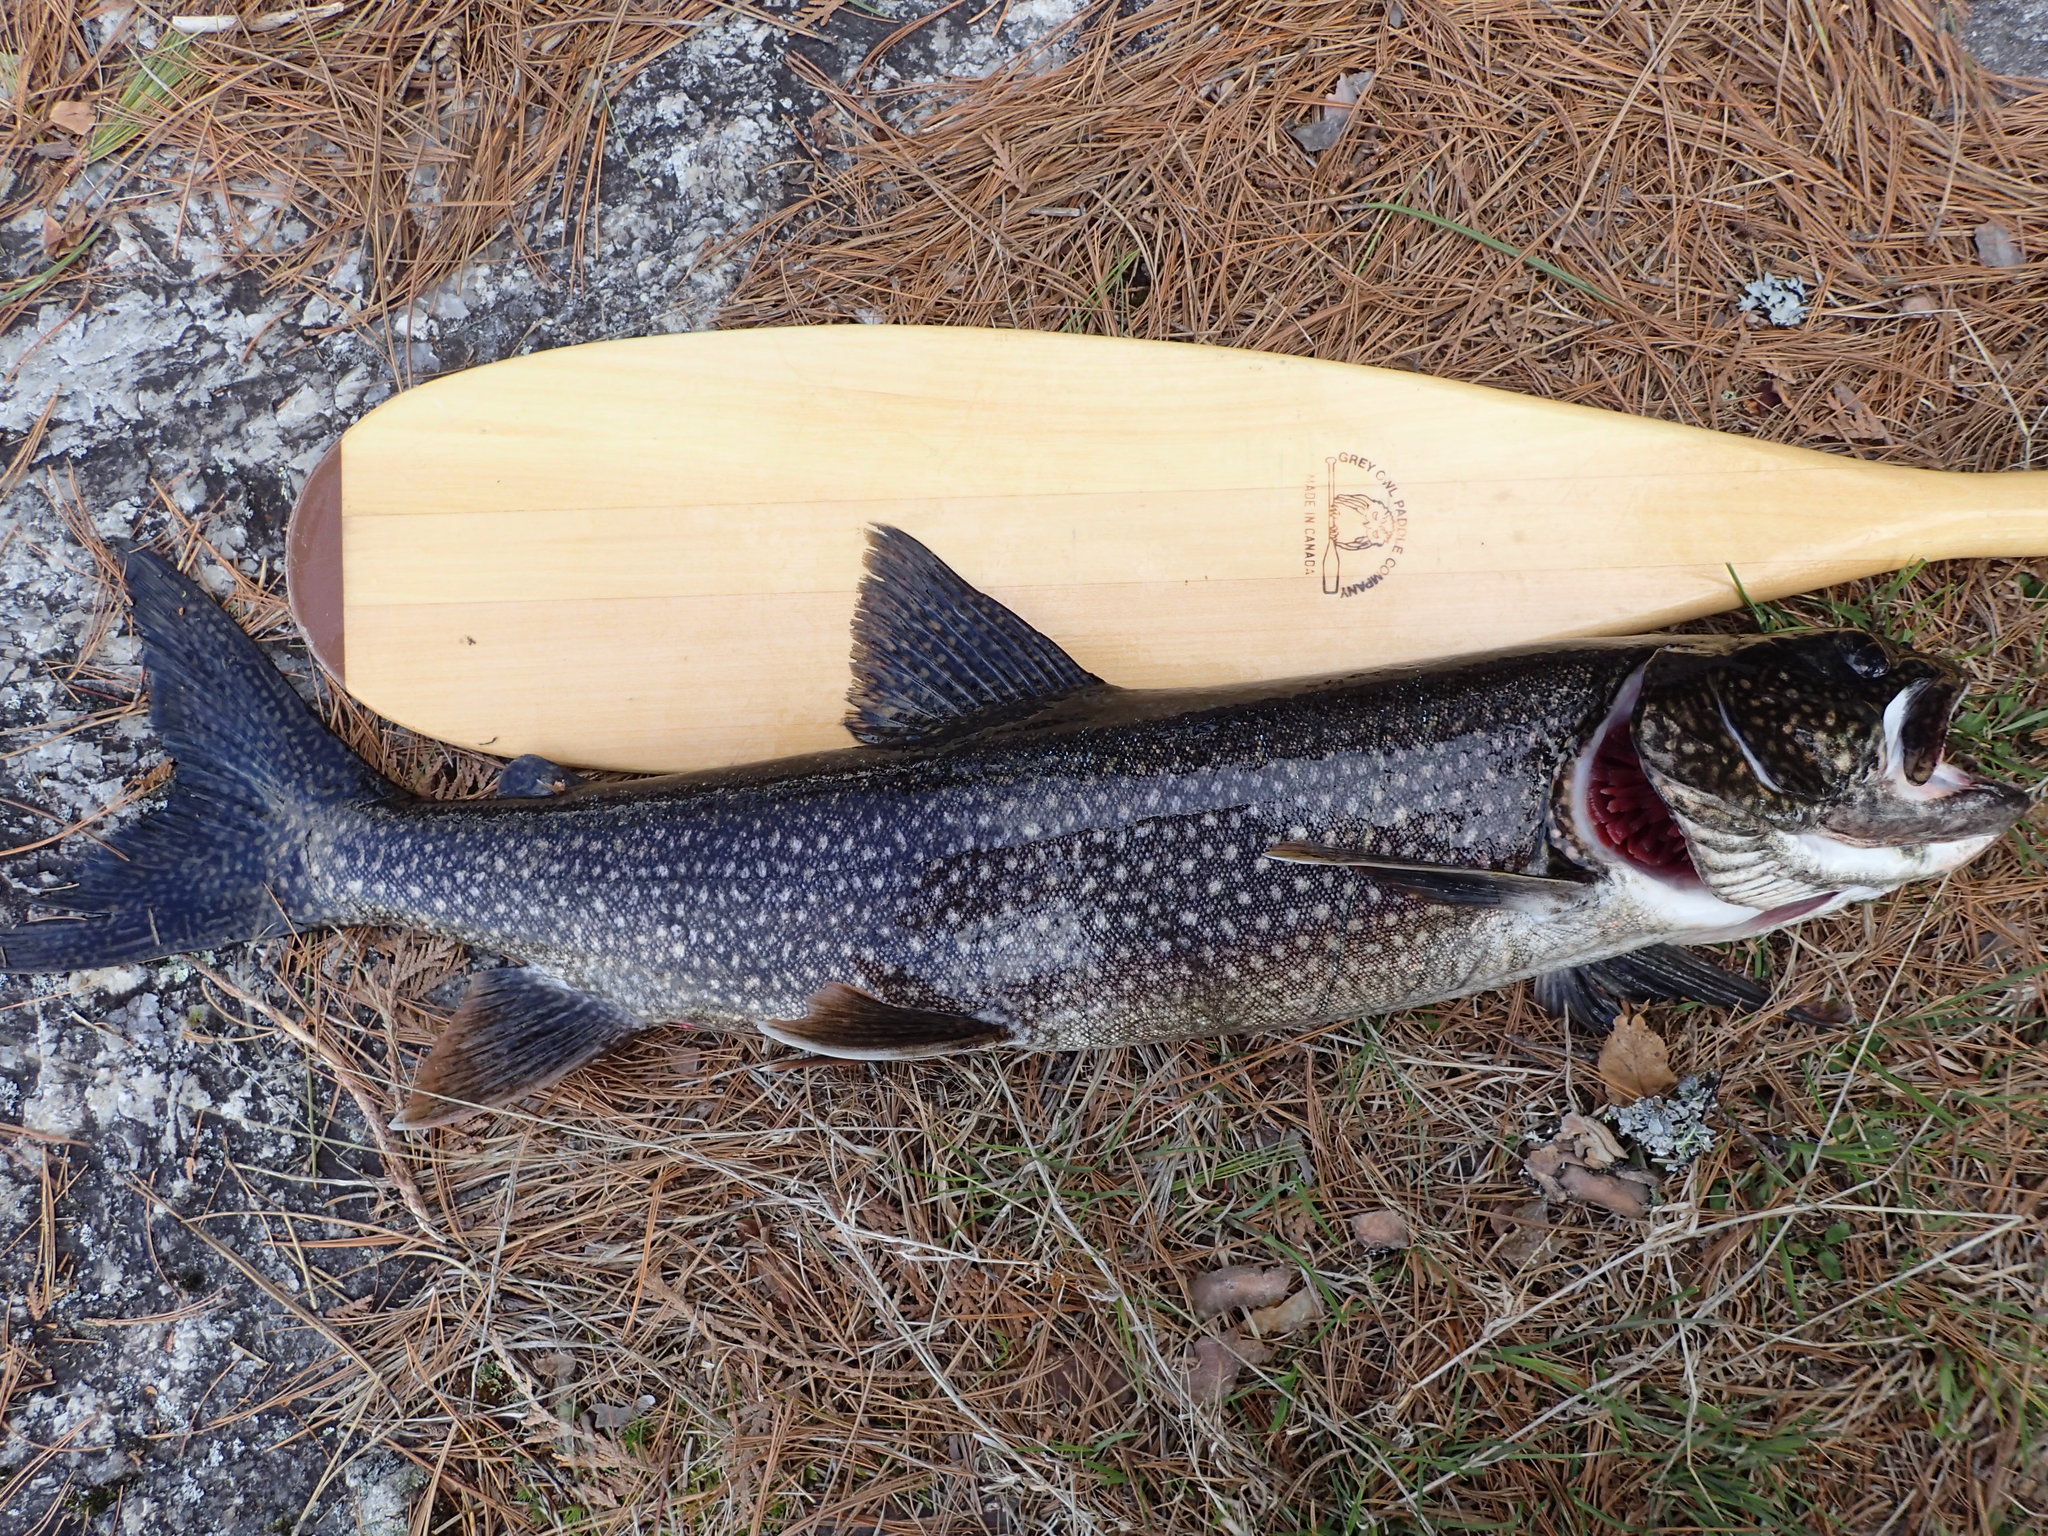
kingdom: Animalia
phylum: Chordata
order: Salmoniformes
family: Salmonidae
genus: Salvelinus
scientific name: Salvelinus namaycush
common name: American lake charr
